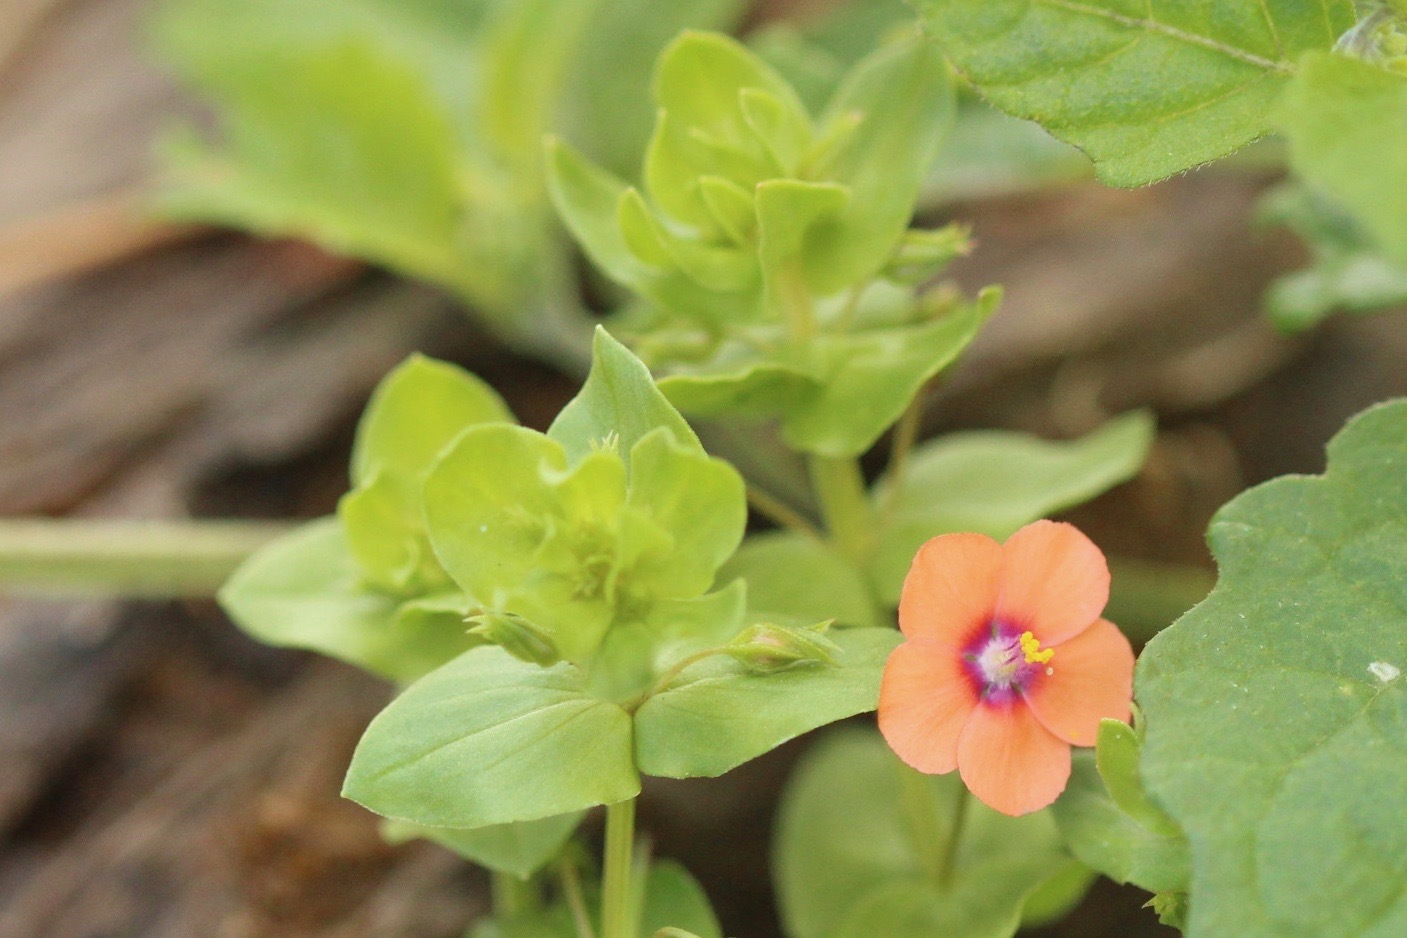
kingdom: Plantae
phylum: Tracheophyta
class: Magnoliopsida
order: Ericales
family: Primulaceae
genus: Lysimachia
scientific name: Lysimachia arvensis
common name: Scarlet pimpernel
